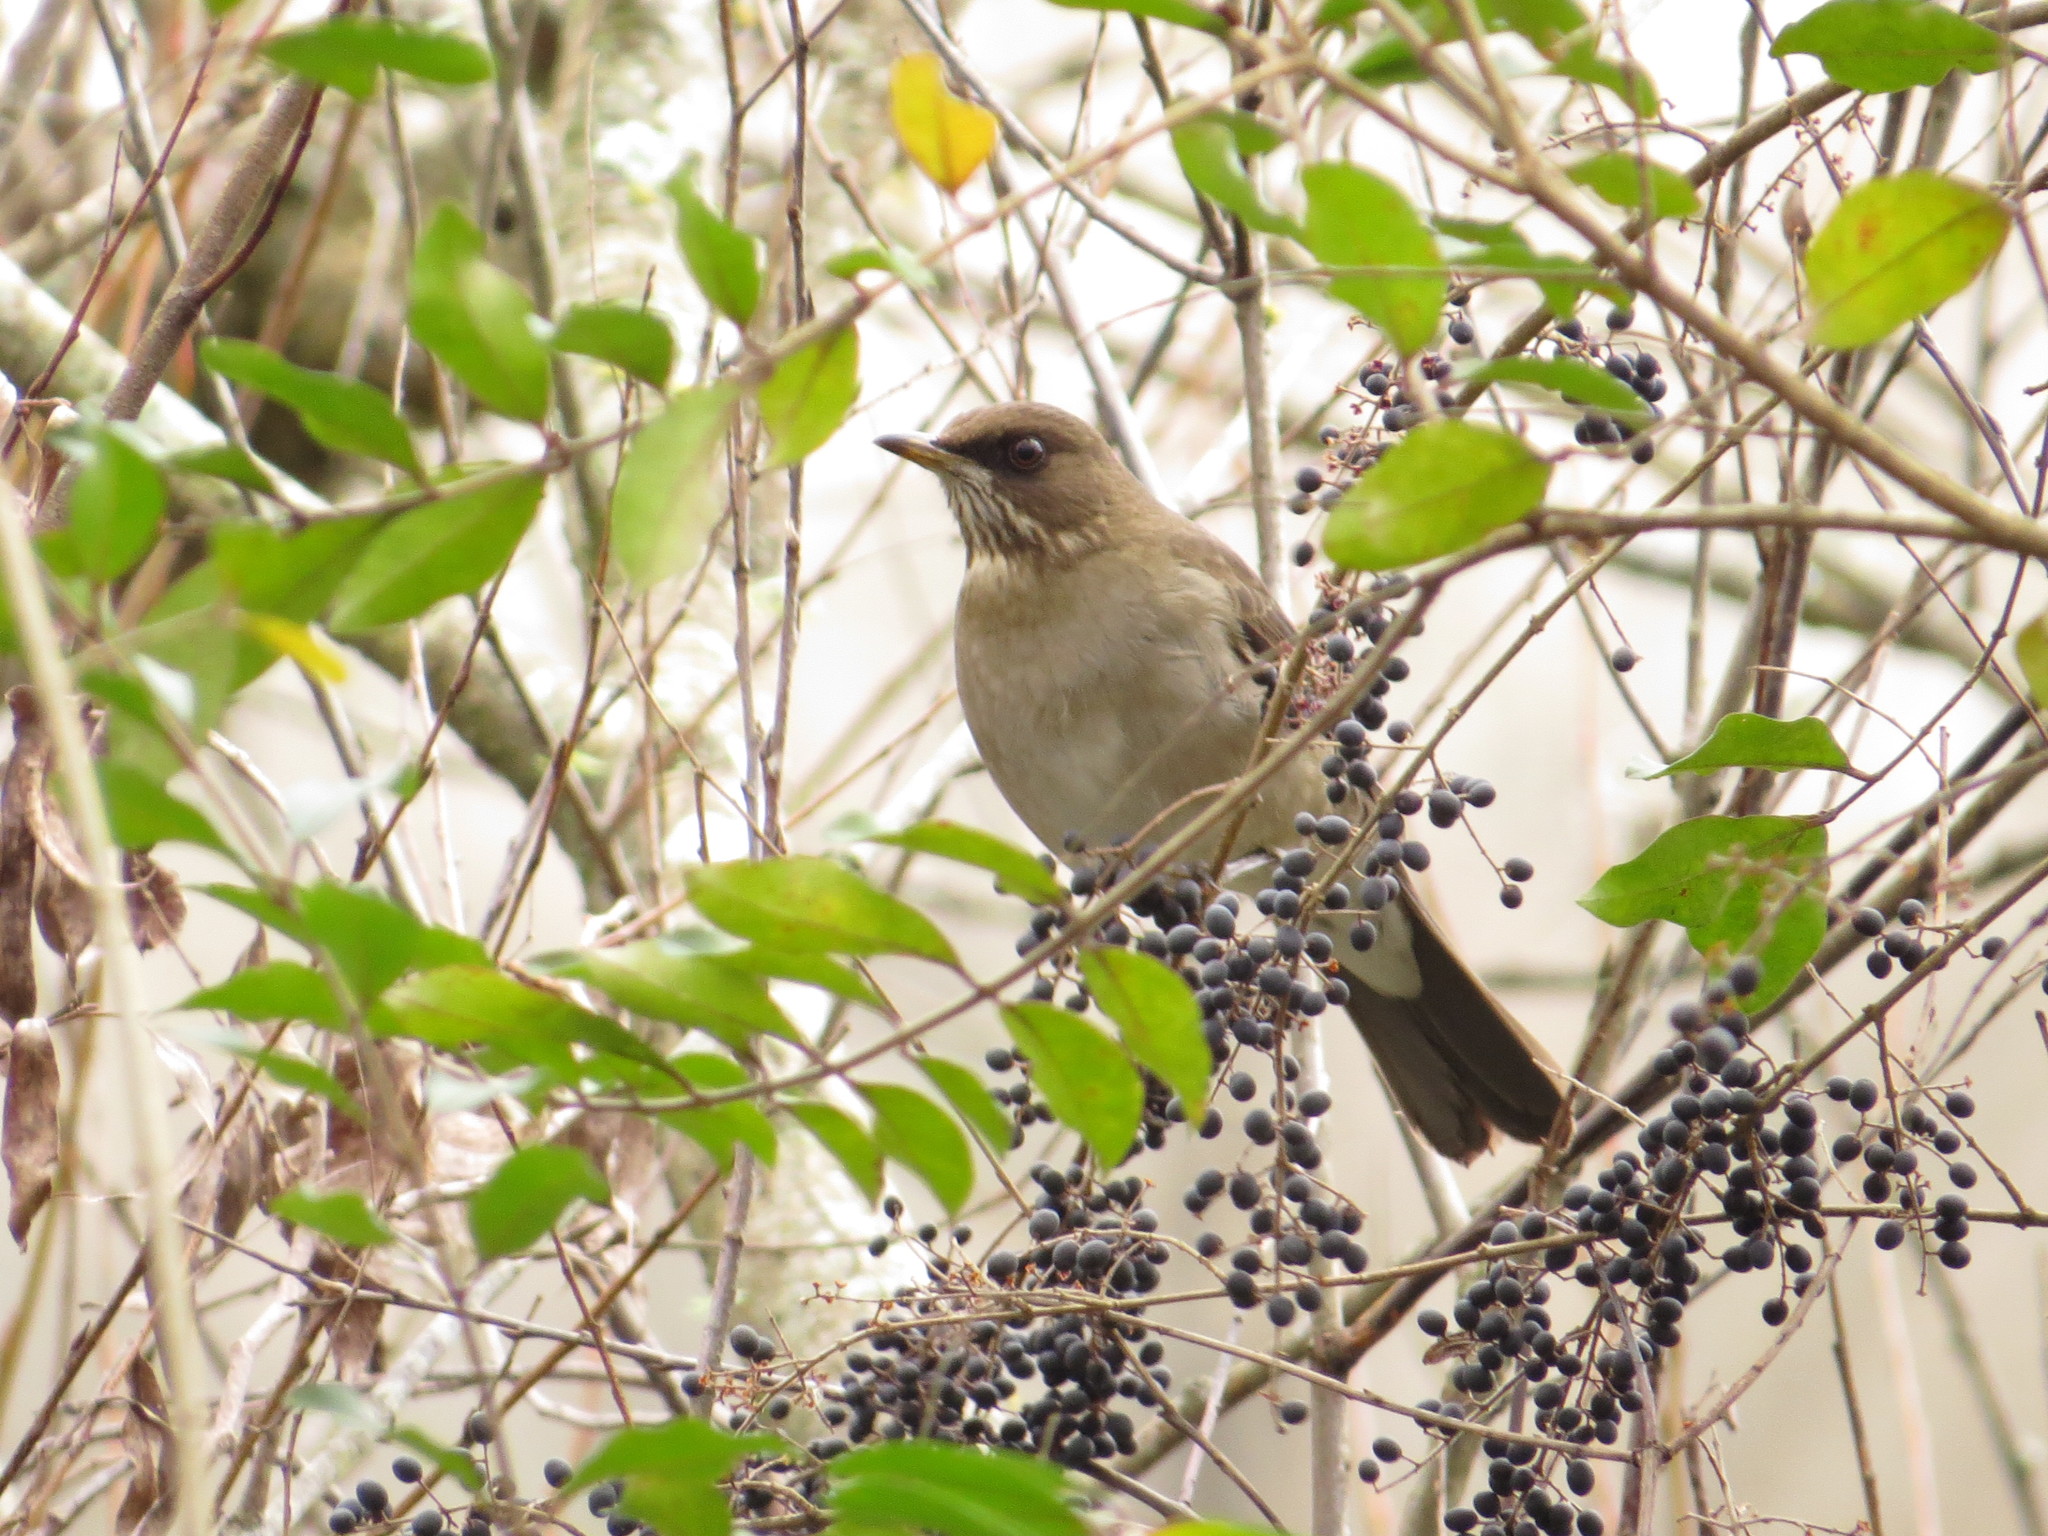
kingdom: Animalia
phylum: Chordata
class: Aves
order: Passeriformes
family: Turdidae
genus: Turdus
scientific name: Turdus amaurochalinus
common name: Creamy-bellied thrush
